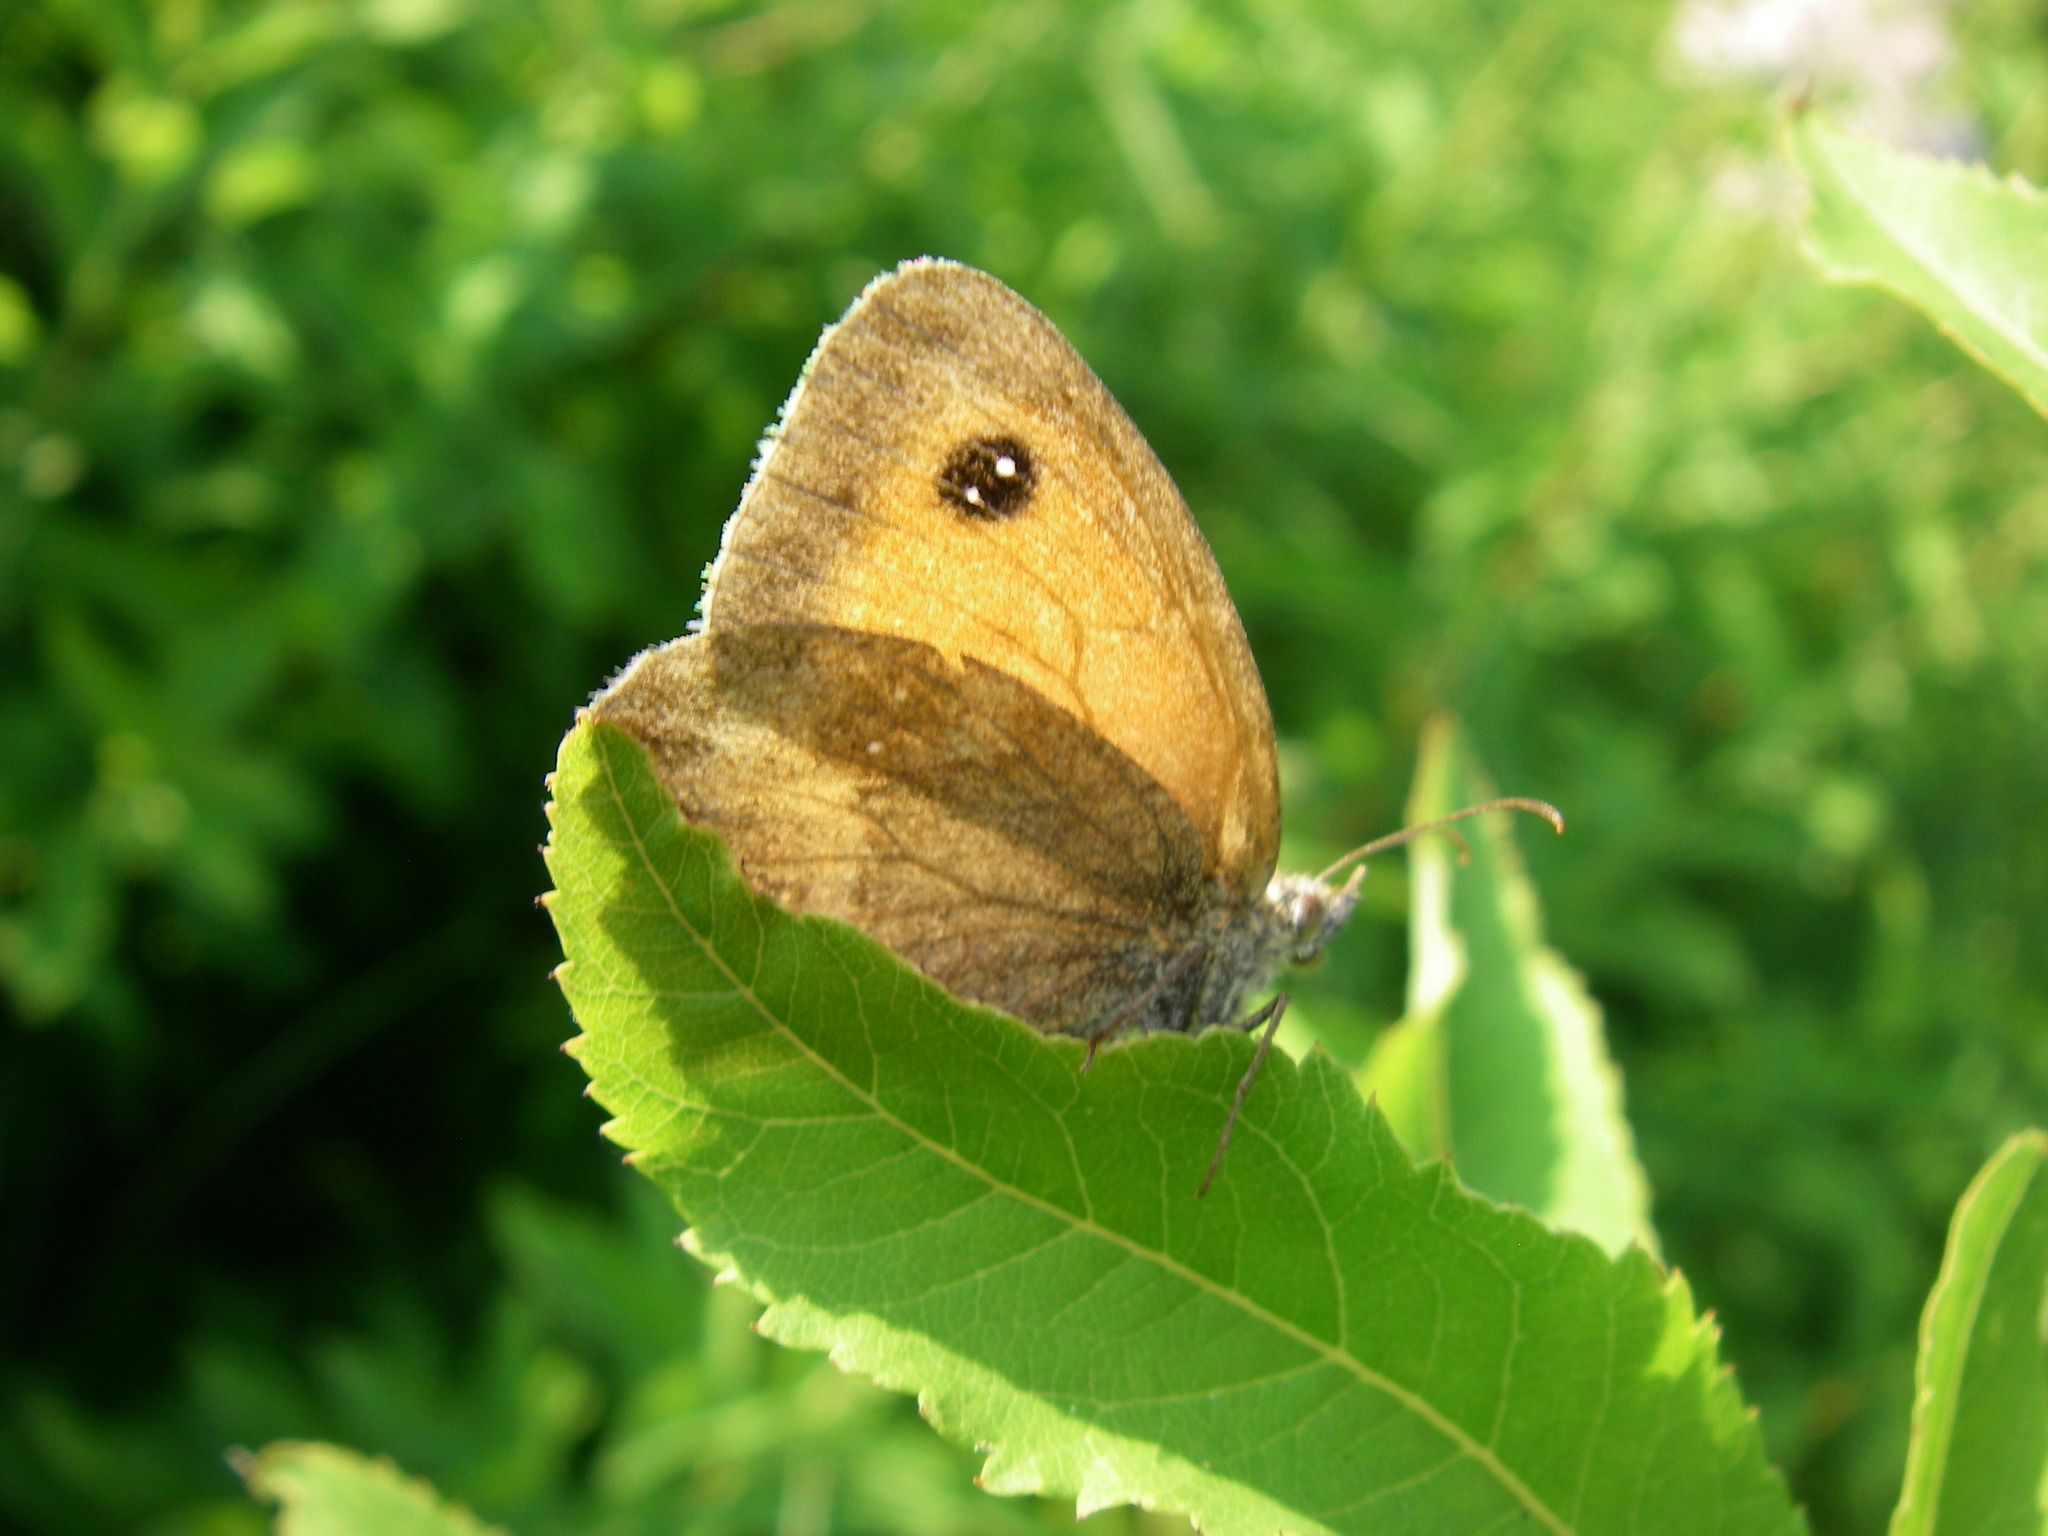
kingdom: Animalia
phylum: Arthropoda
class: Insecta
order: Lepidoptera
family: Nymphalidae
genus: Pyronia
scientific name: Pyronia tithonus
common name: Gatekeeper
